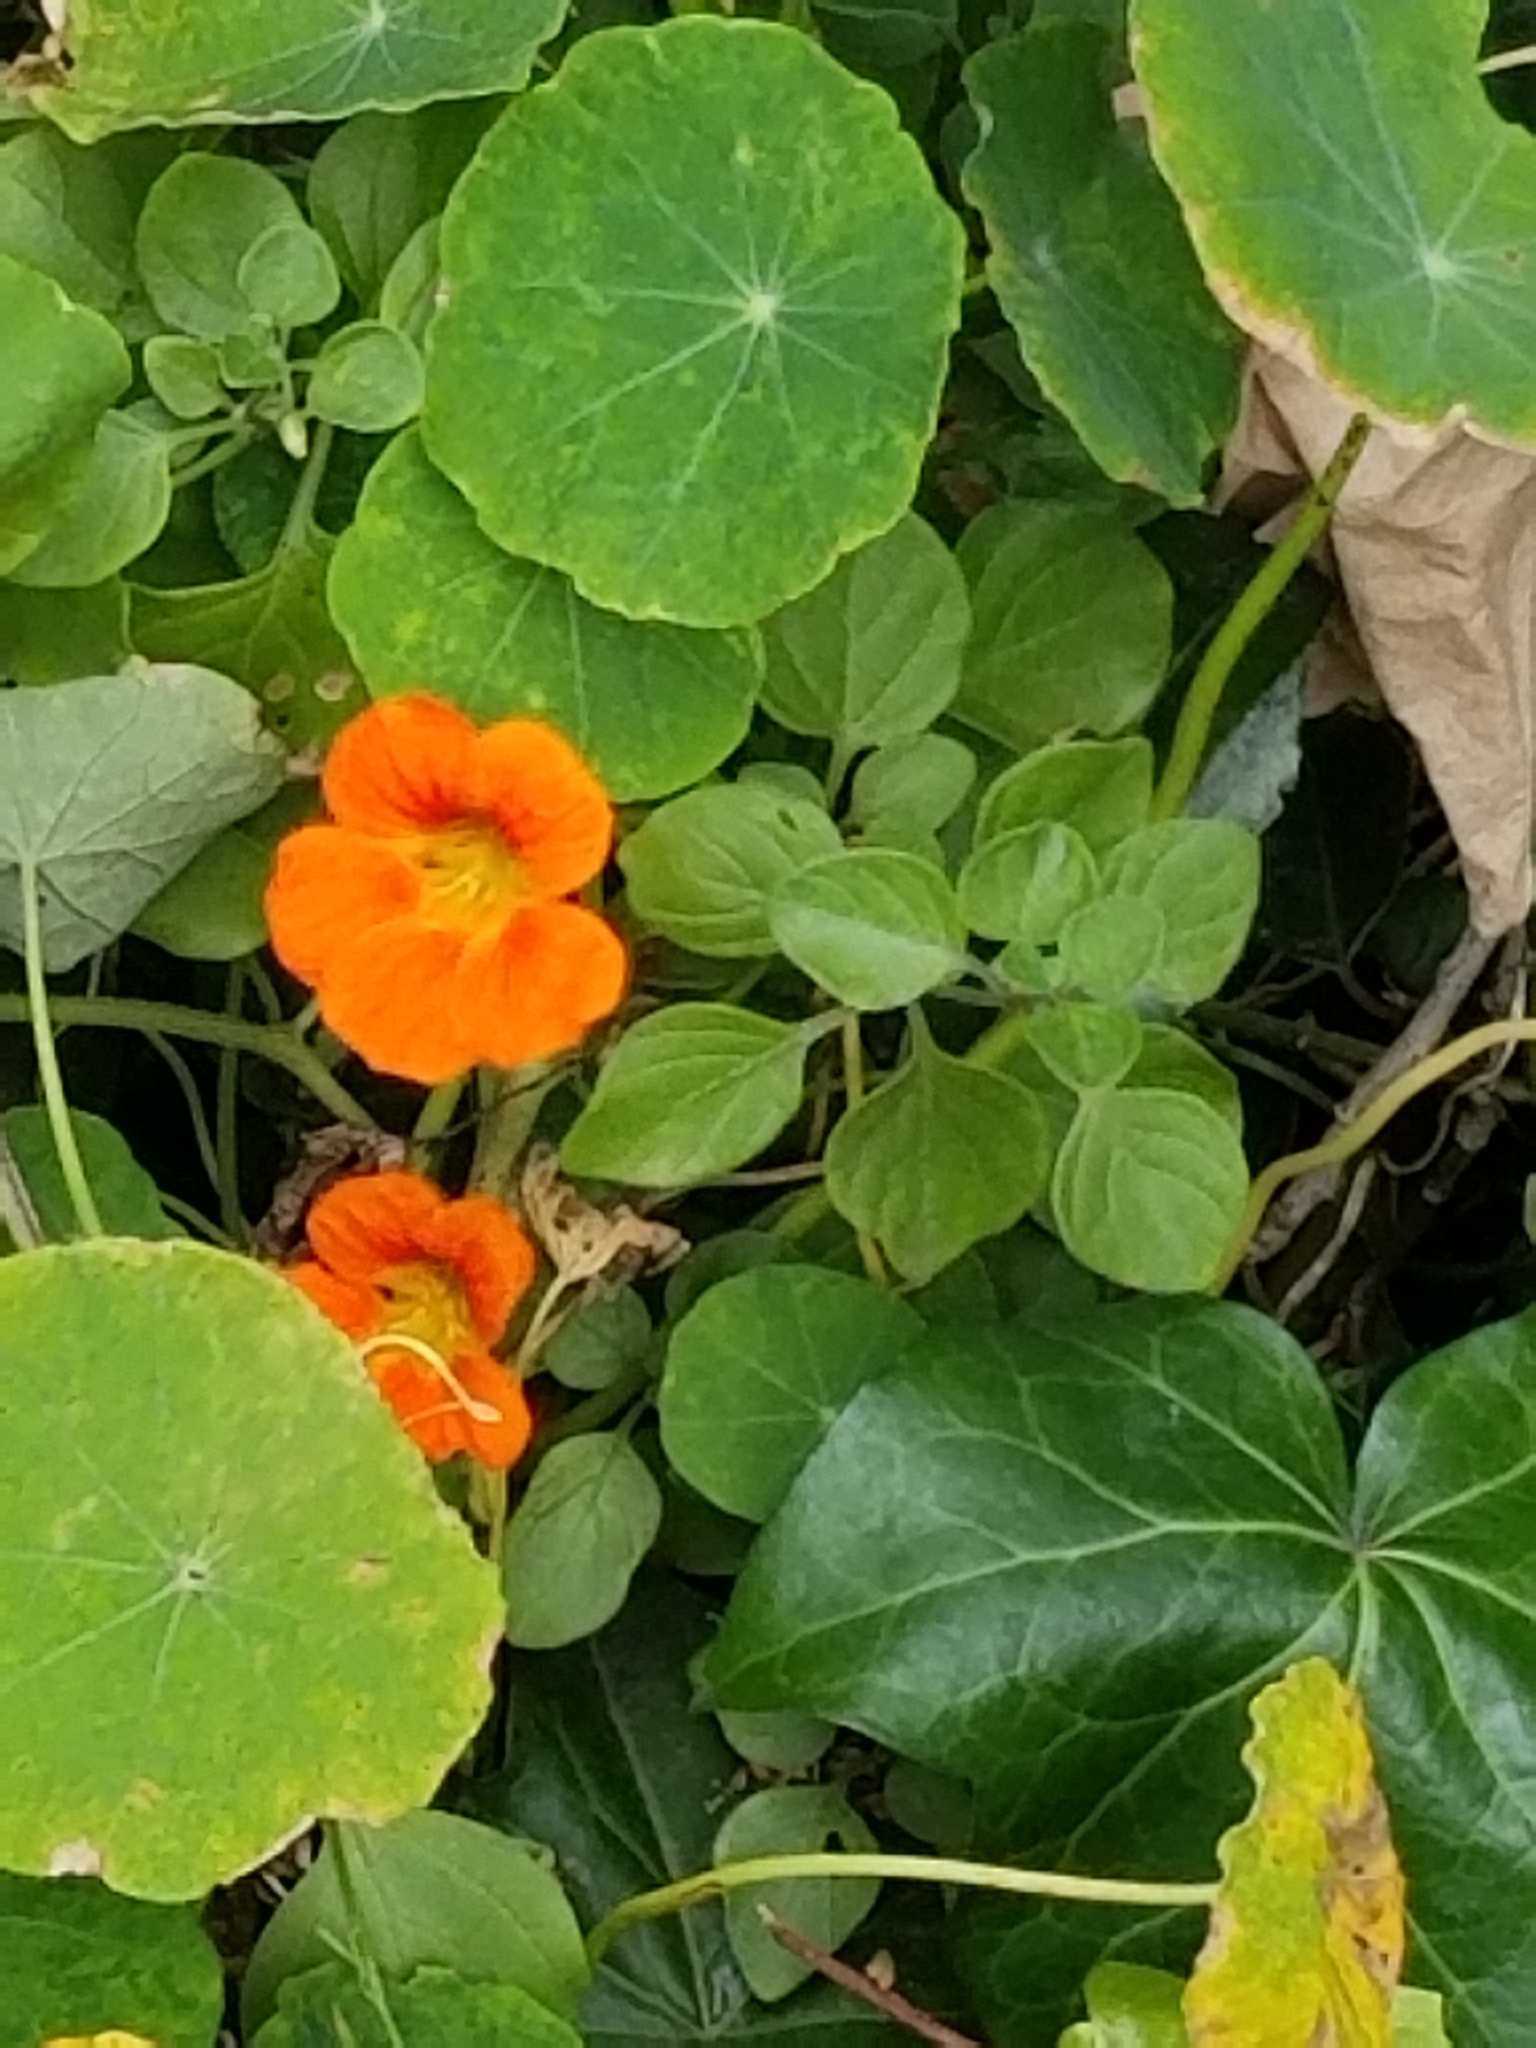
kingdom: Plantae
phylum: Tracheophyta
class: Magnoliopsida
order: Brassicales
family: Tropaeolaceae
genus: Tropaeolum
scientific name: Tropaeolum majus
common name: Nasturtium
